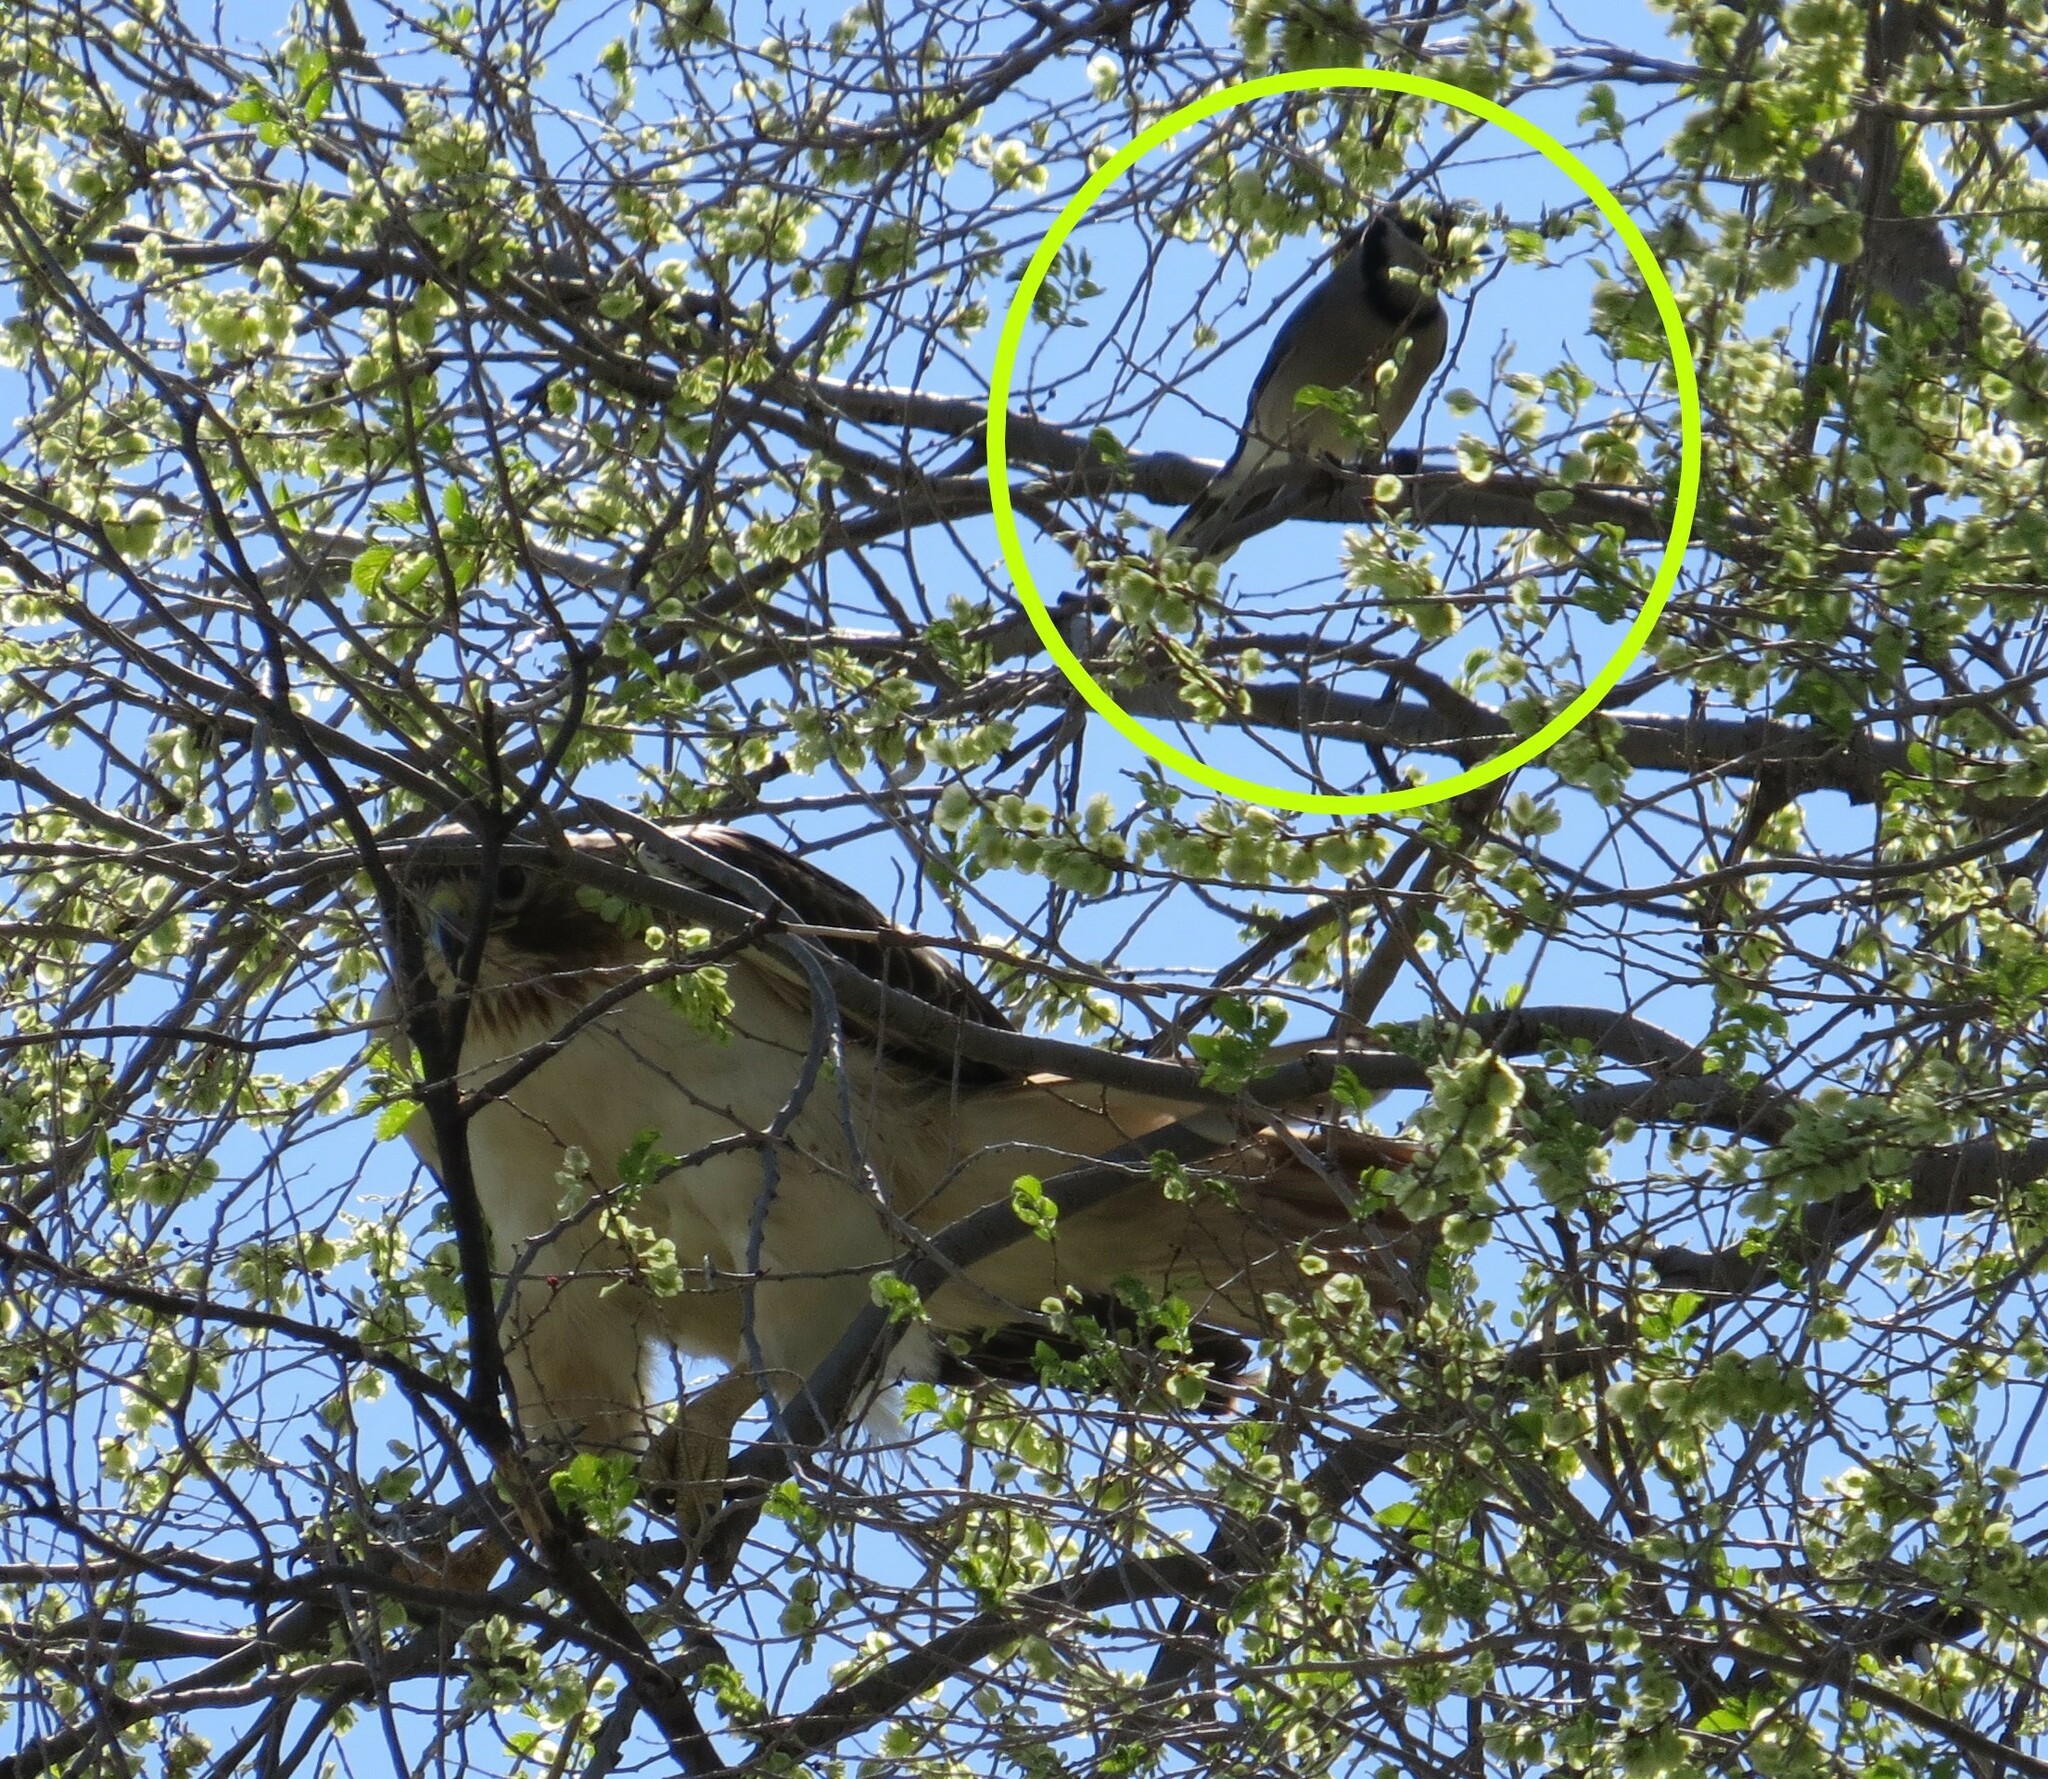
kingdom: Animalia
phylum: Chordata
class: Aves
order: Passeriformes
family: Corvidae
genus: Cyanocitta
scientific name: Cyanocitta cristata
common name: Blue jay
